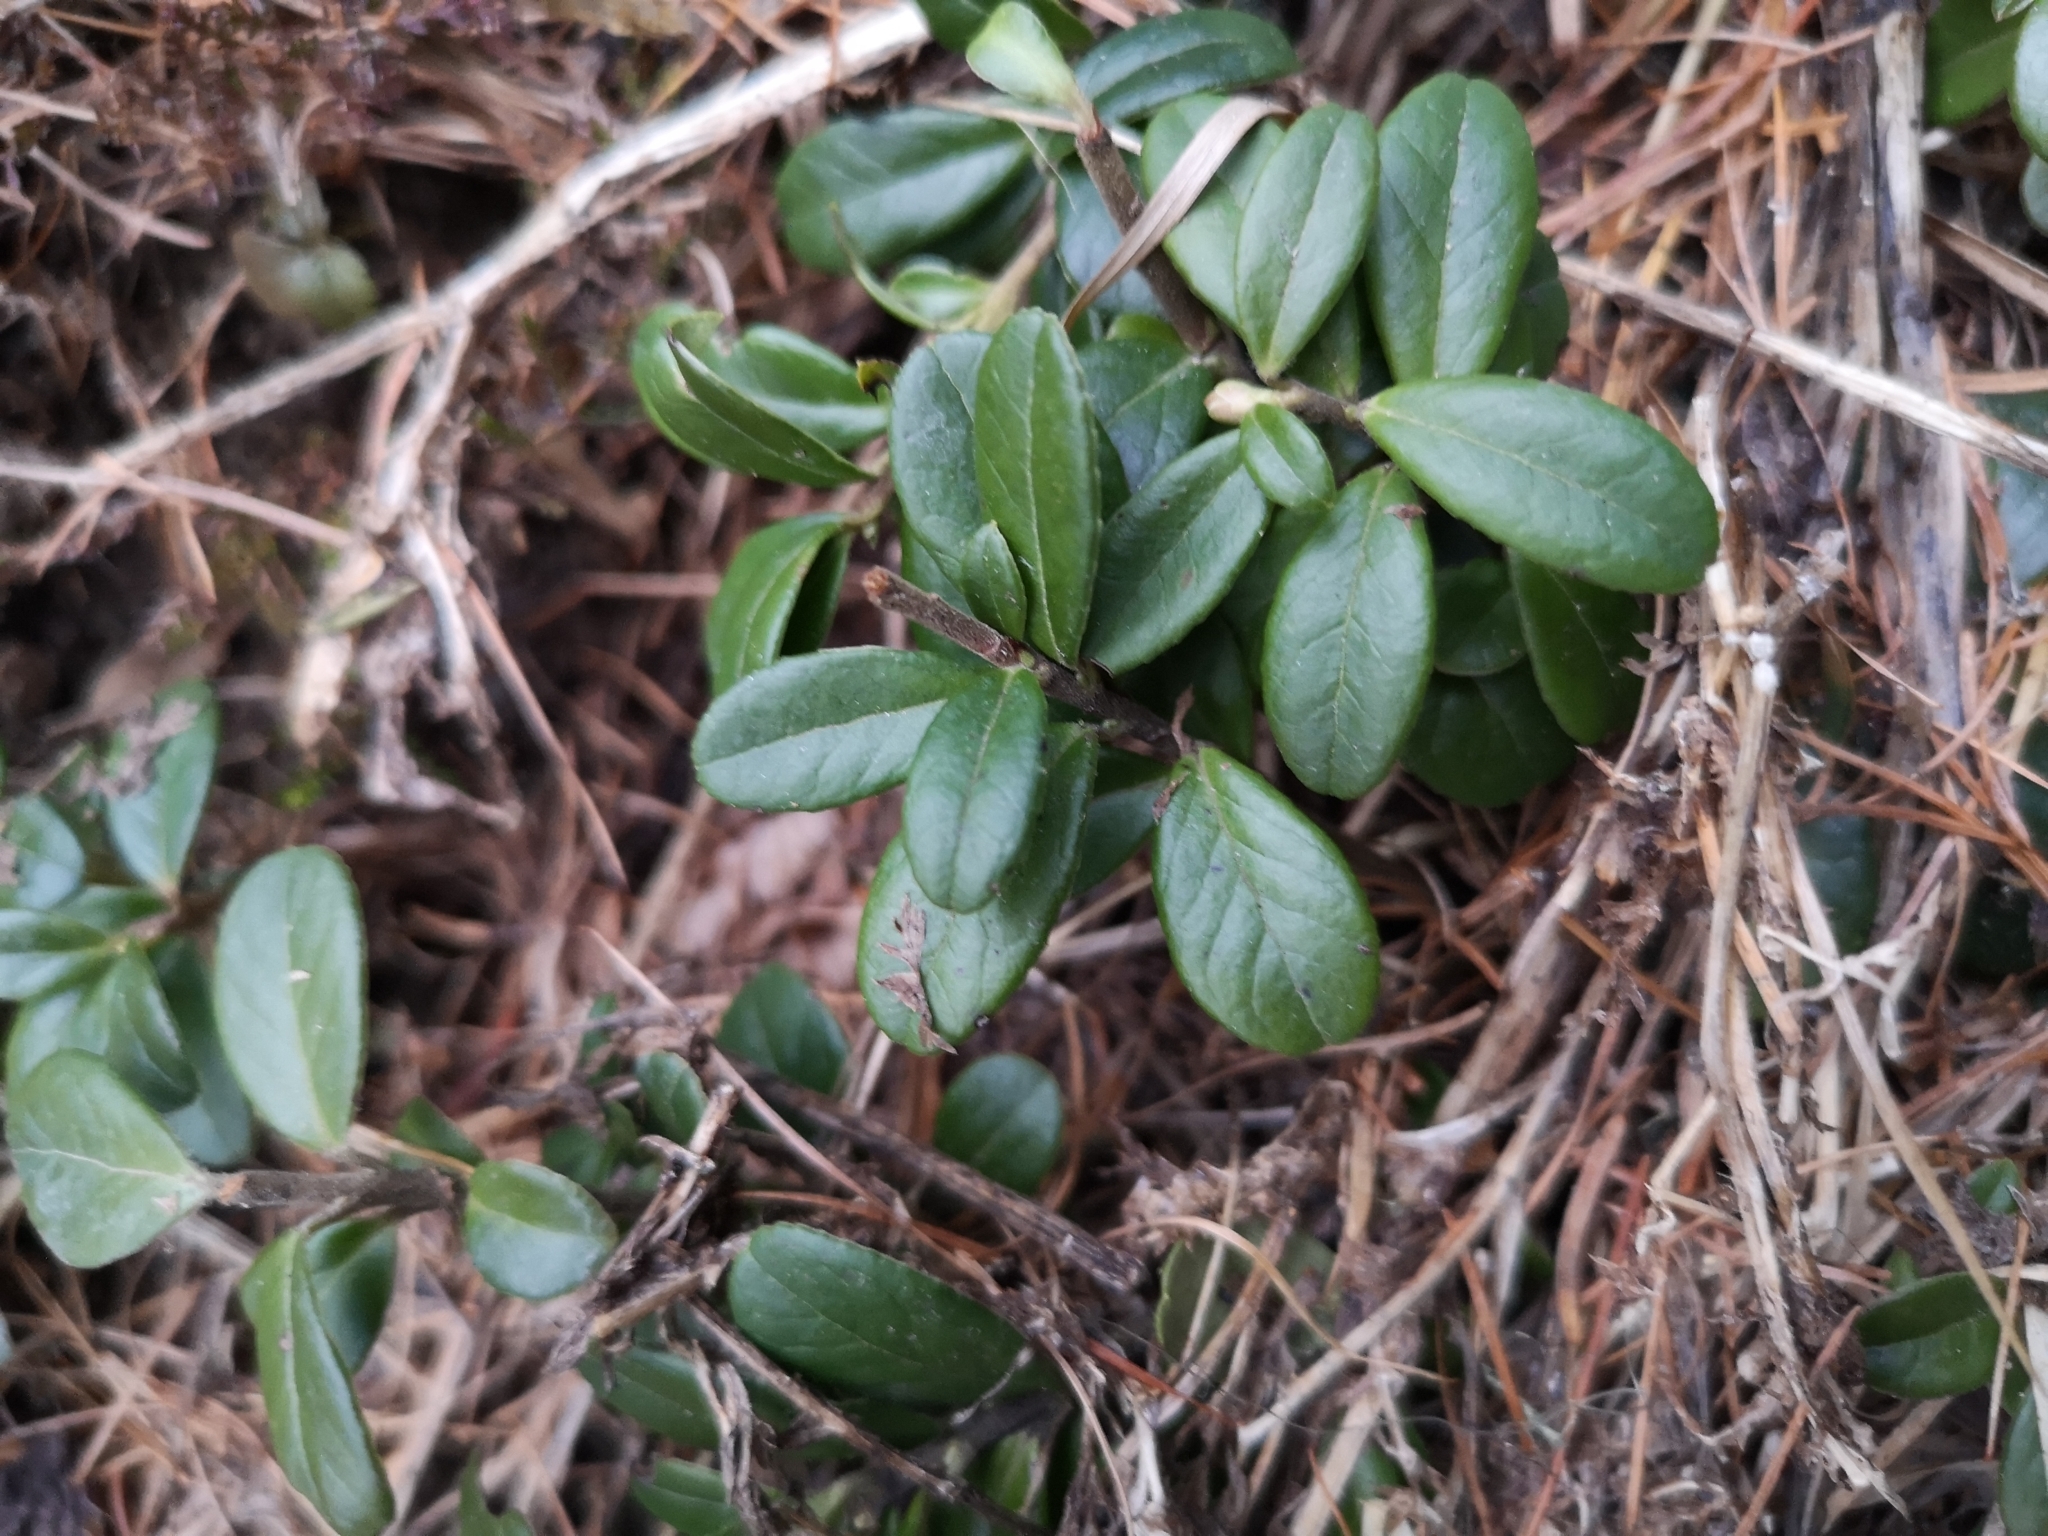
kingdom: Plantae
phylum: Tracheophyta
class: Magnoliopsida
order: Ericales
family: Ericaceae
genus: Vaccinium
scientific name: Vaccinium vitis-idaea
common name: Cowberry
